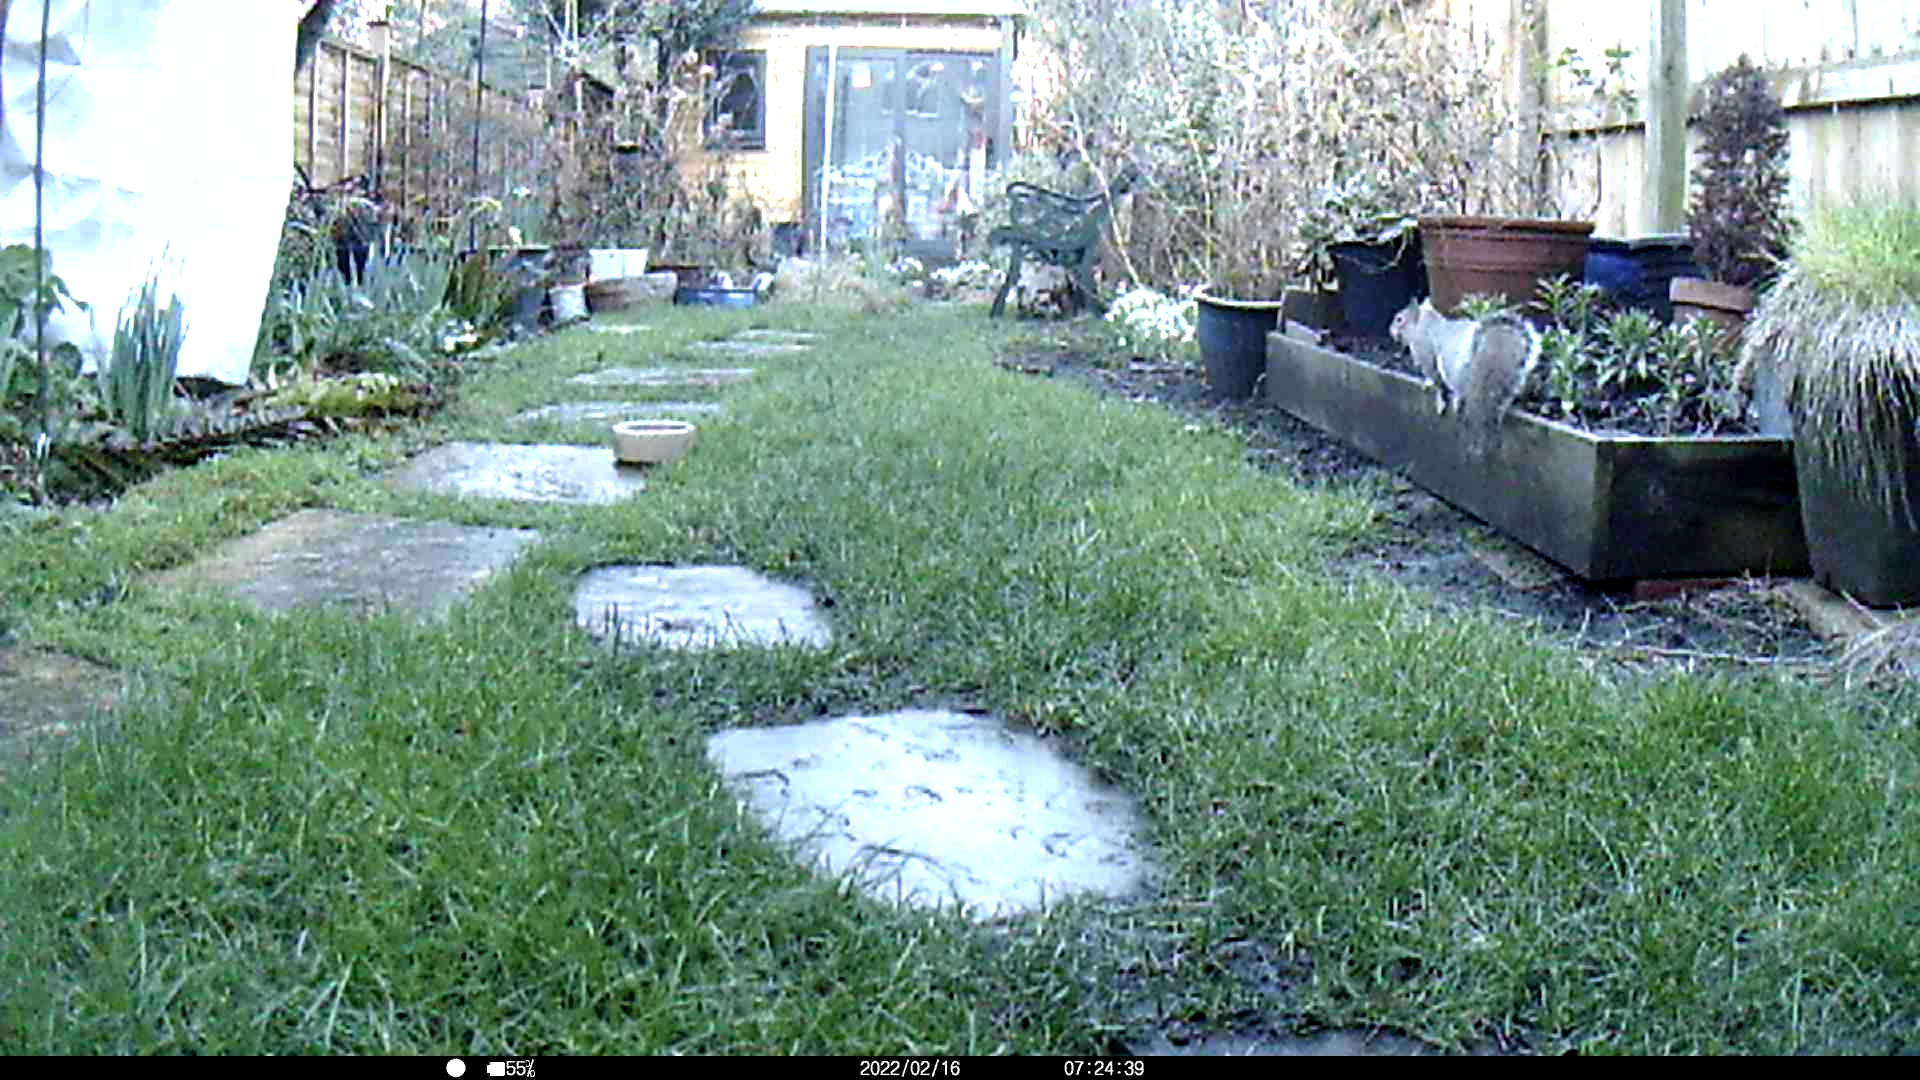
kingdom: Animalia
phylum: Chordata
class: Mammalia
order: Rodentia
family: Sciuridae
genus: Sciurus
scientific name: Sciurus carolinensis
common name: Eastern gray squirrel
